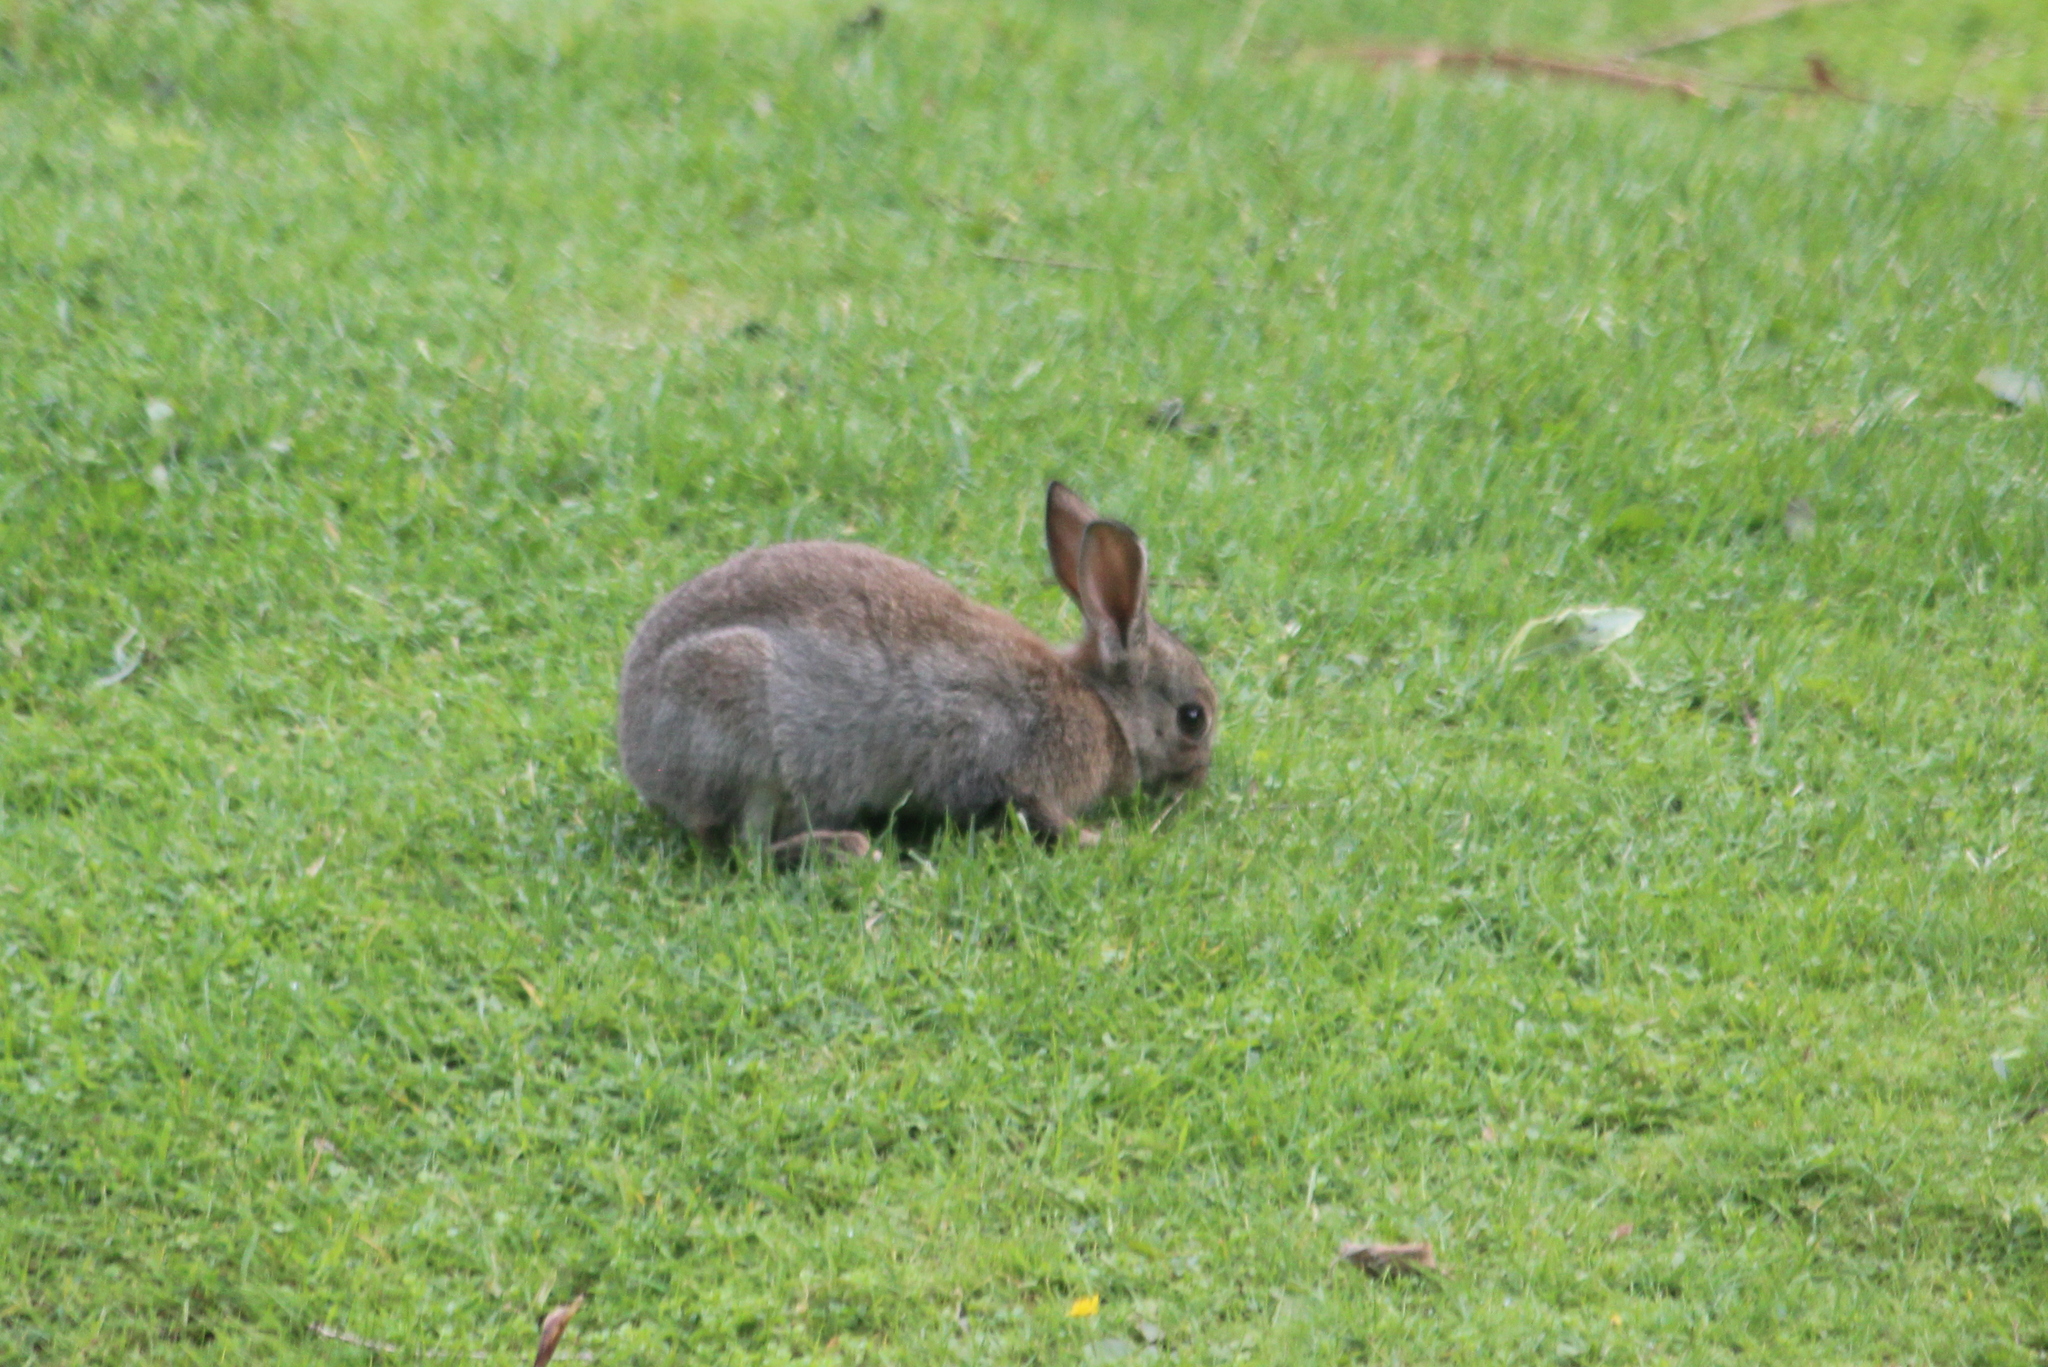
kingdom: Animalia
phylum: Chordata
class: Mammalia
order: Lagomorpha
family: Leporidae
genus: Oryctolagus
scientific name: Oryctolagus cuniculus
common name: European rabbit
